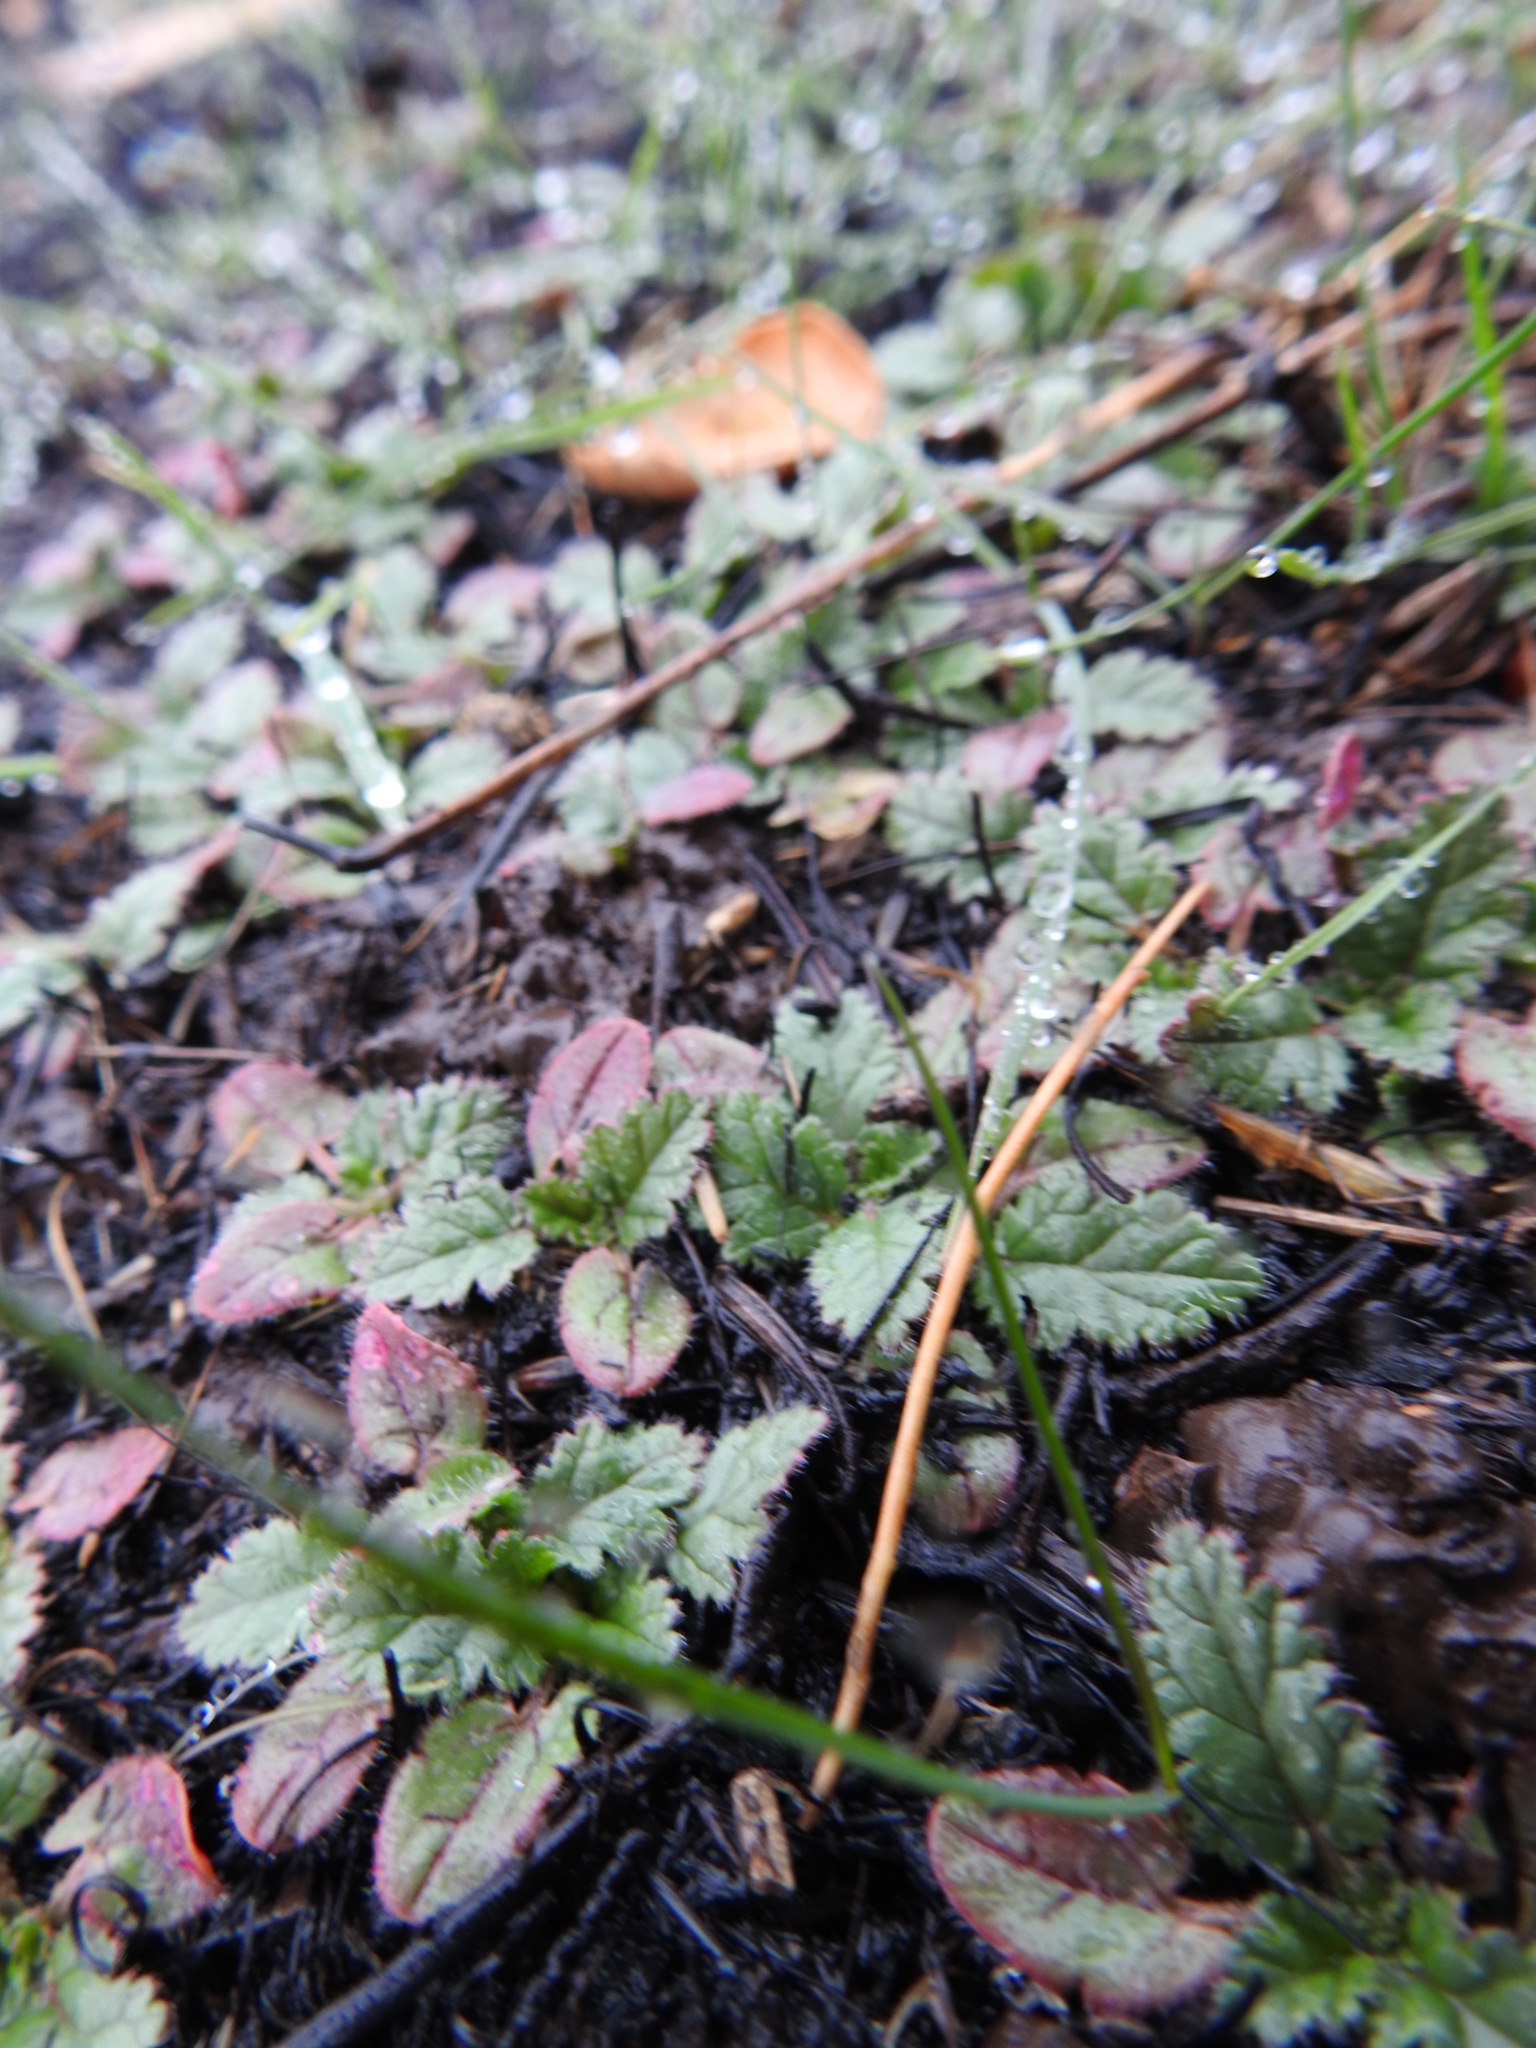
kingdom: Plantae
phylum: Tracheophyta
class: Magnoliopsida
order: Geraniales
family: Geraniaceae
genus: Erodium
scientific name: Erodium
